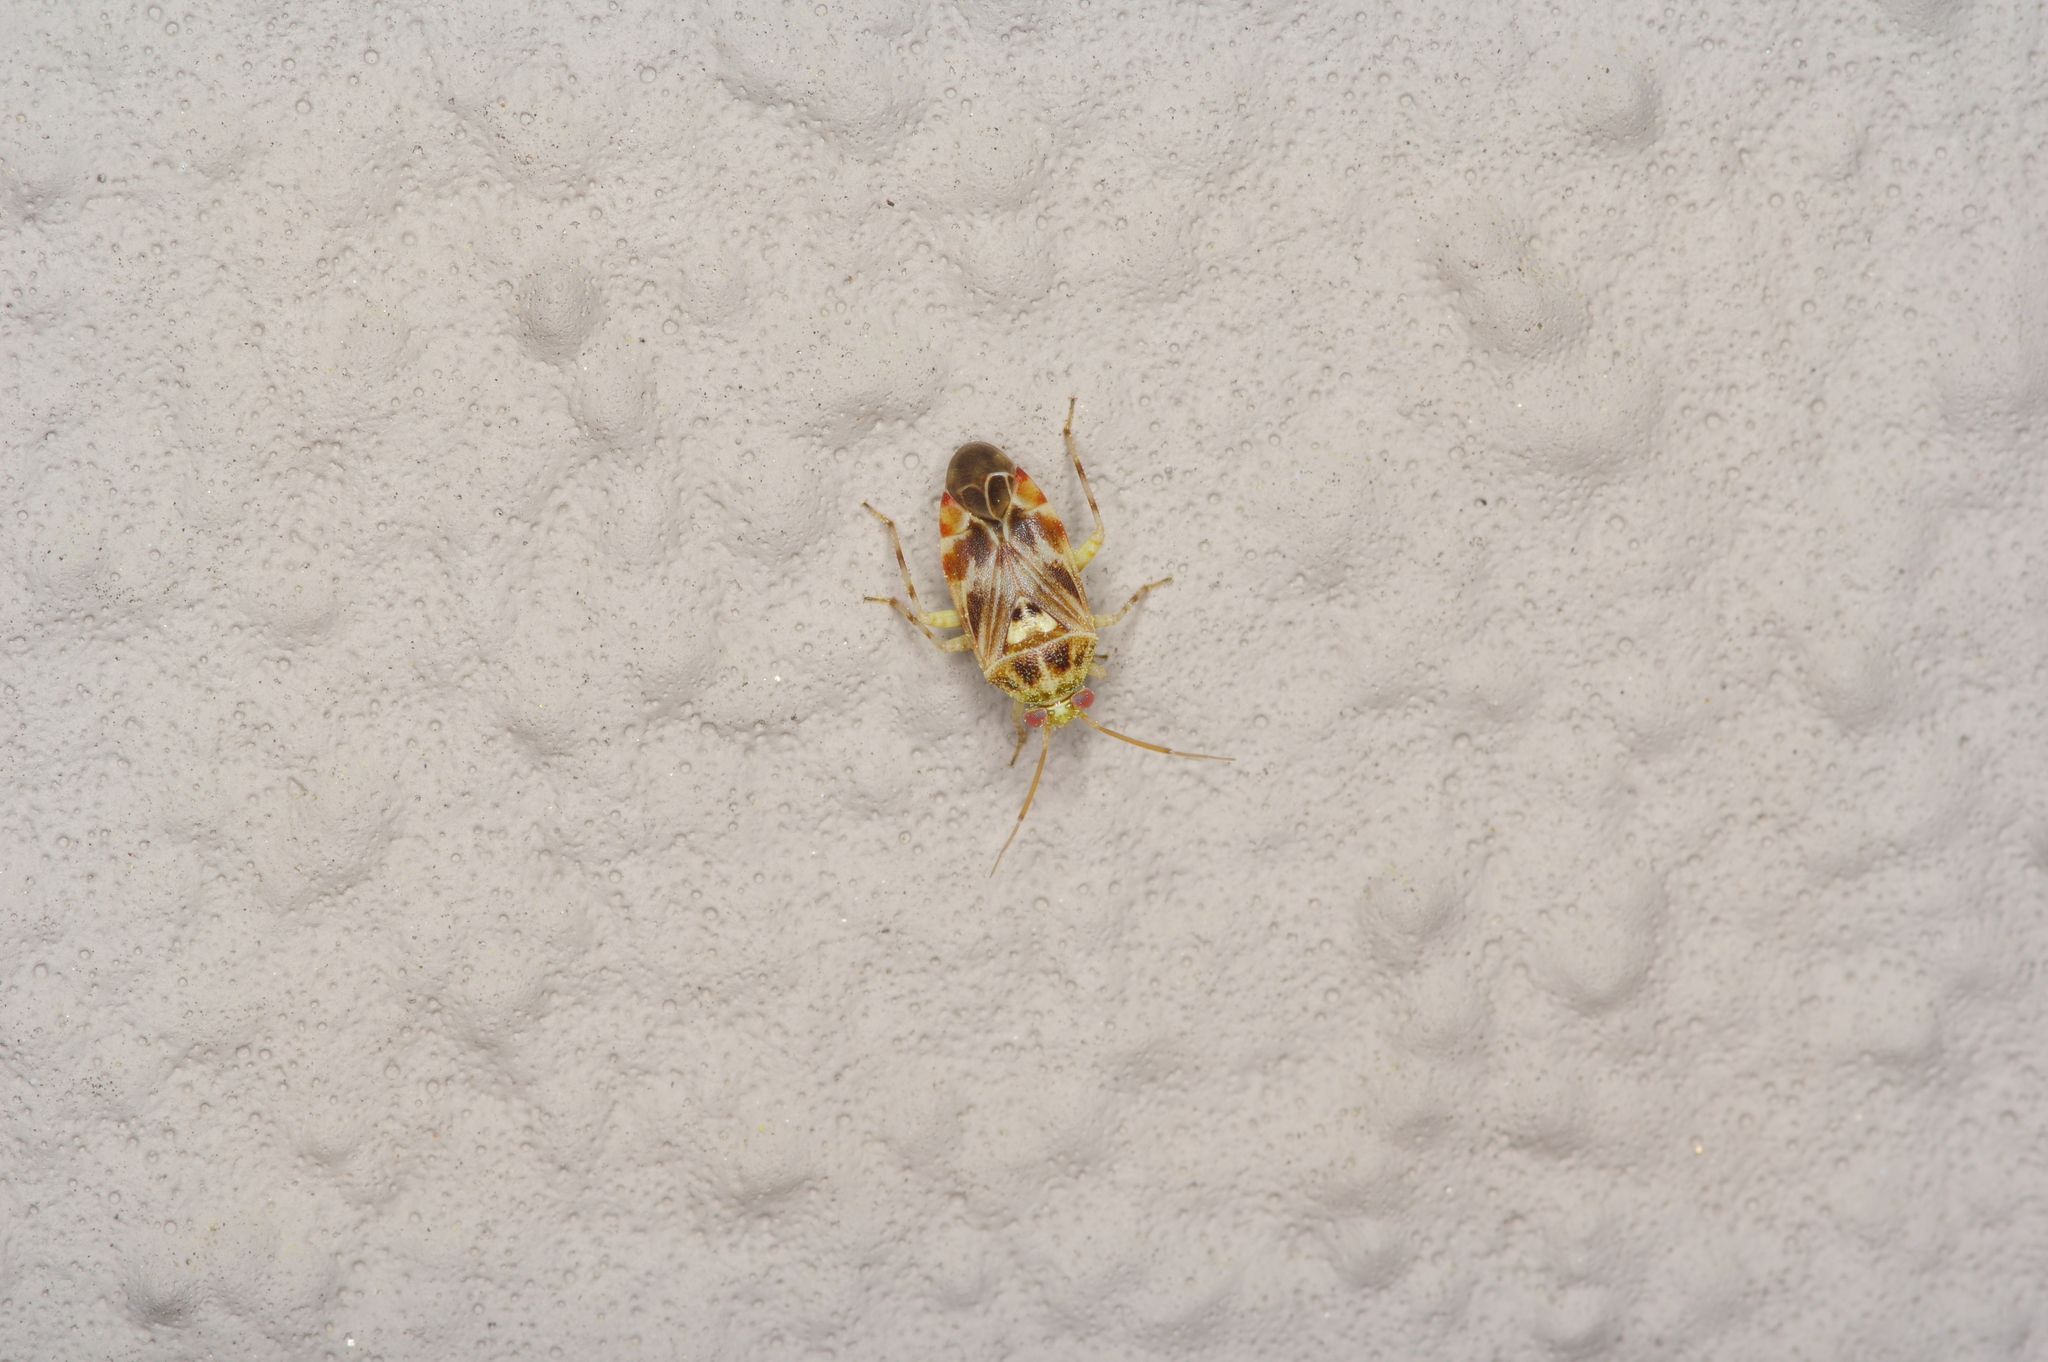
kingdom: Animalia
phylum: Arthropoda
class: Insecta
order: Hemiptera
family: Miridae
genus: Tropidosteptes
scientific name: Tropidosteptes quercicola
